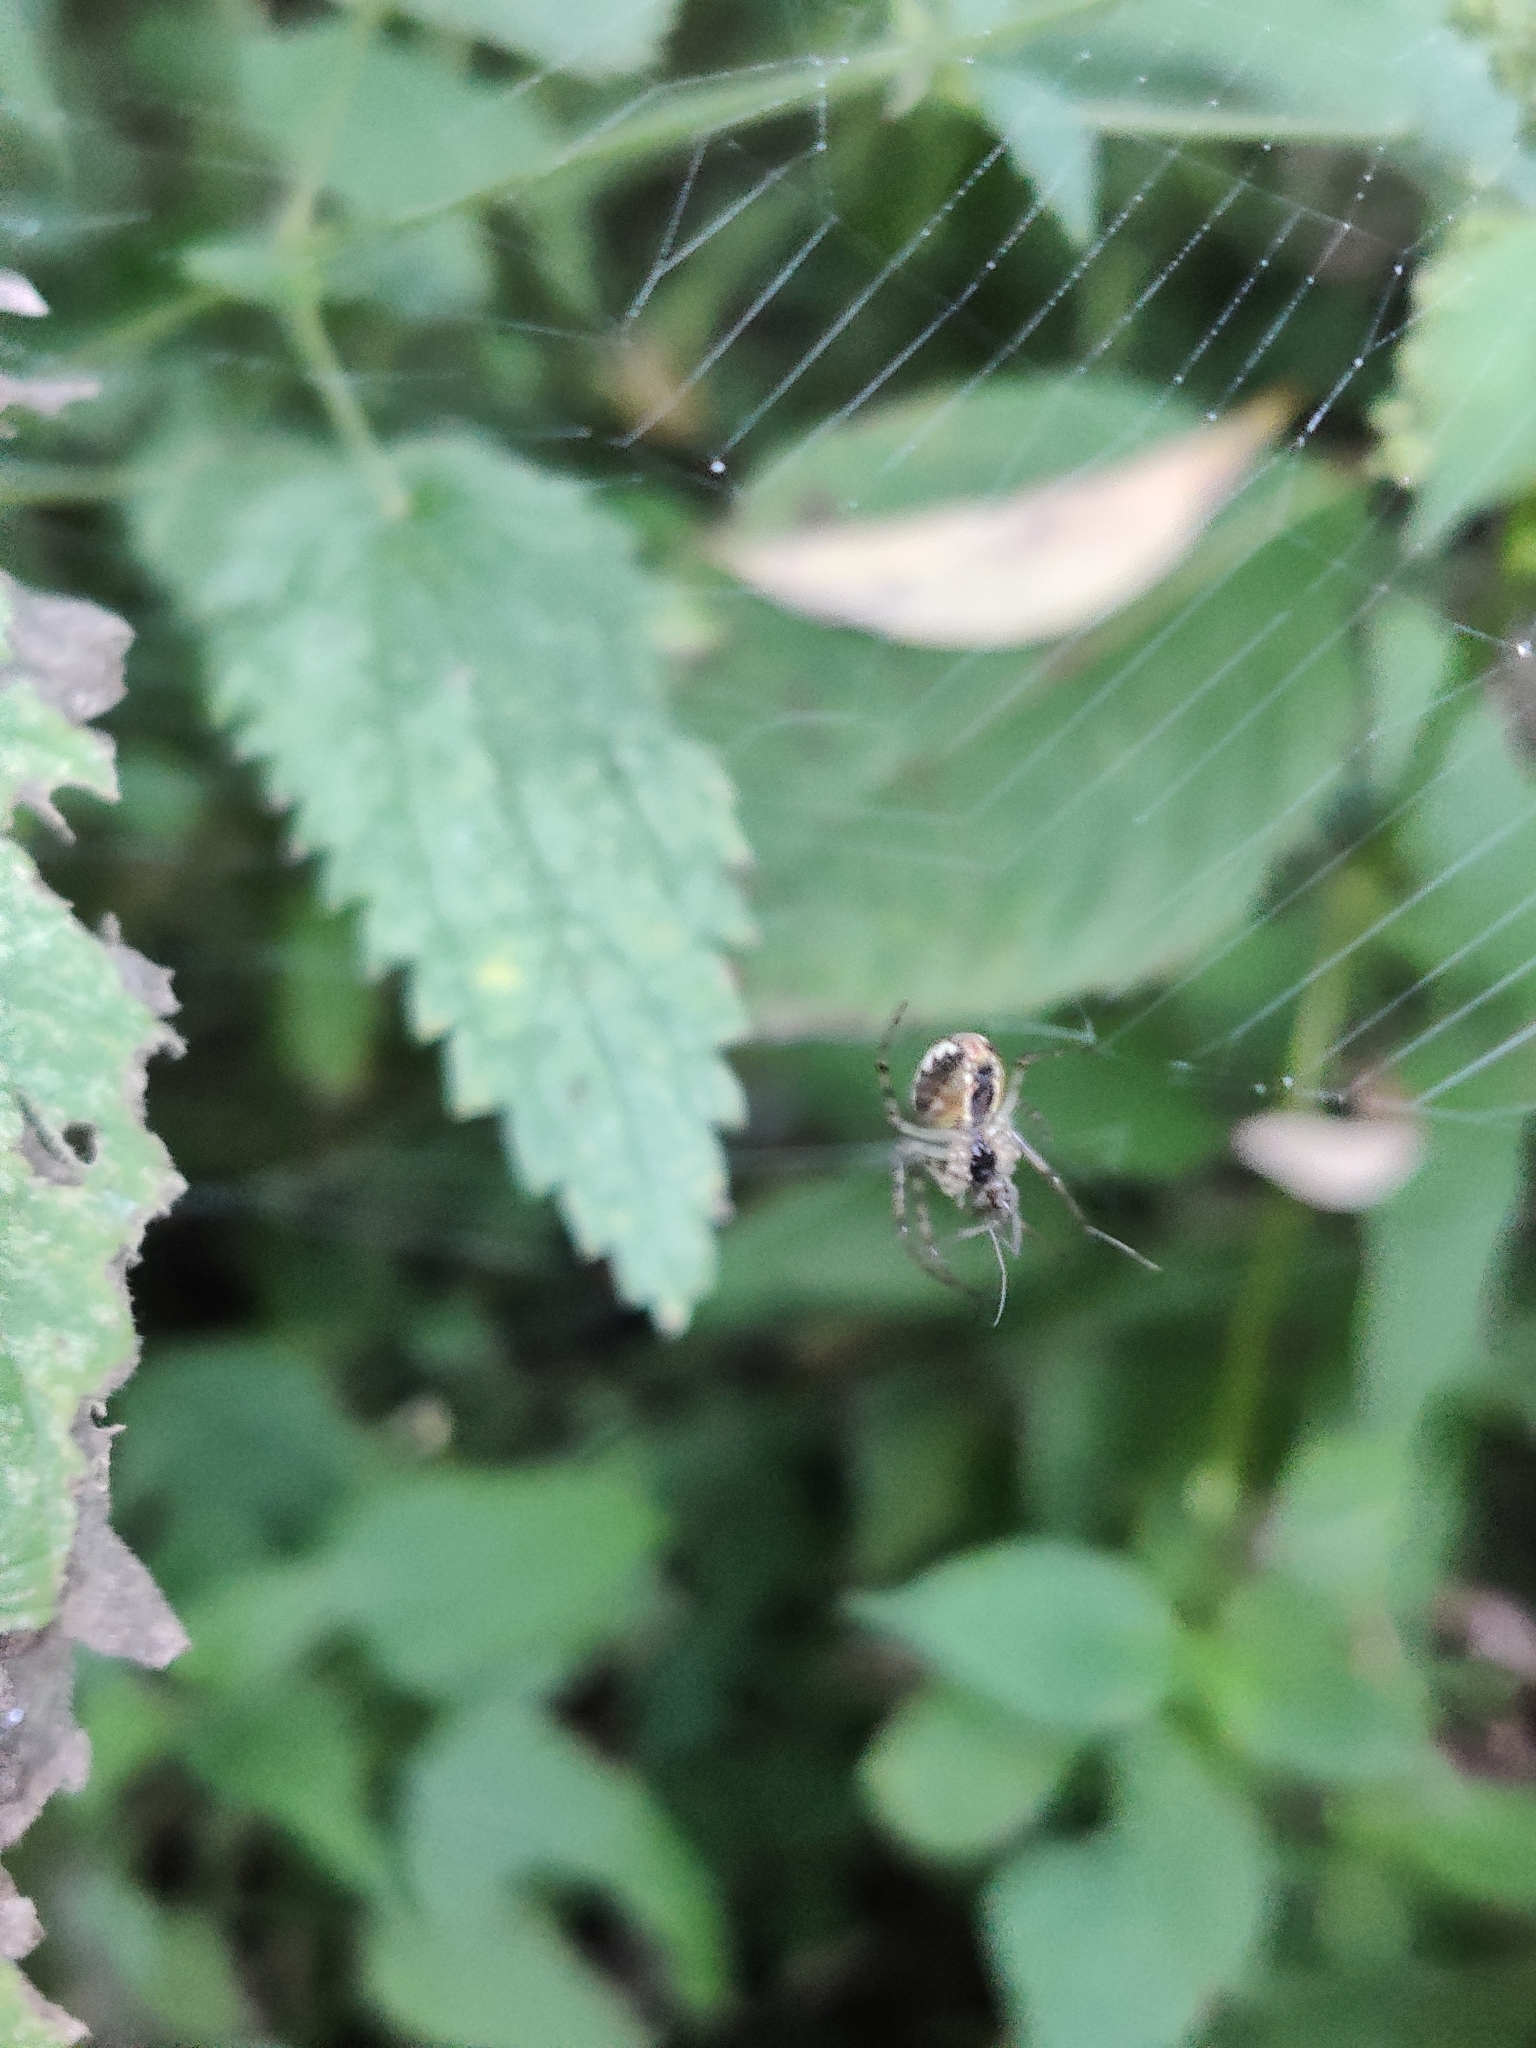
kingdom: Animalia
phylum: Arthropoda
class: Arachnida
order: Araneae
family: Tetragnathidae
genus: Metellina
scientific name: Metellina
